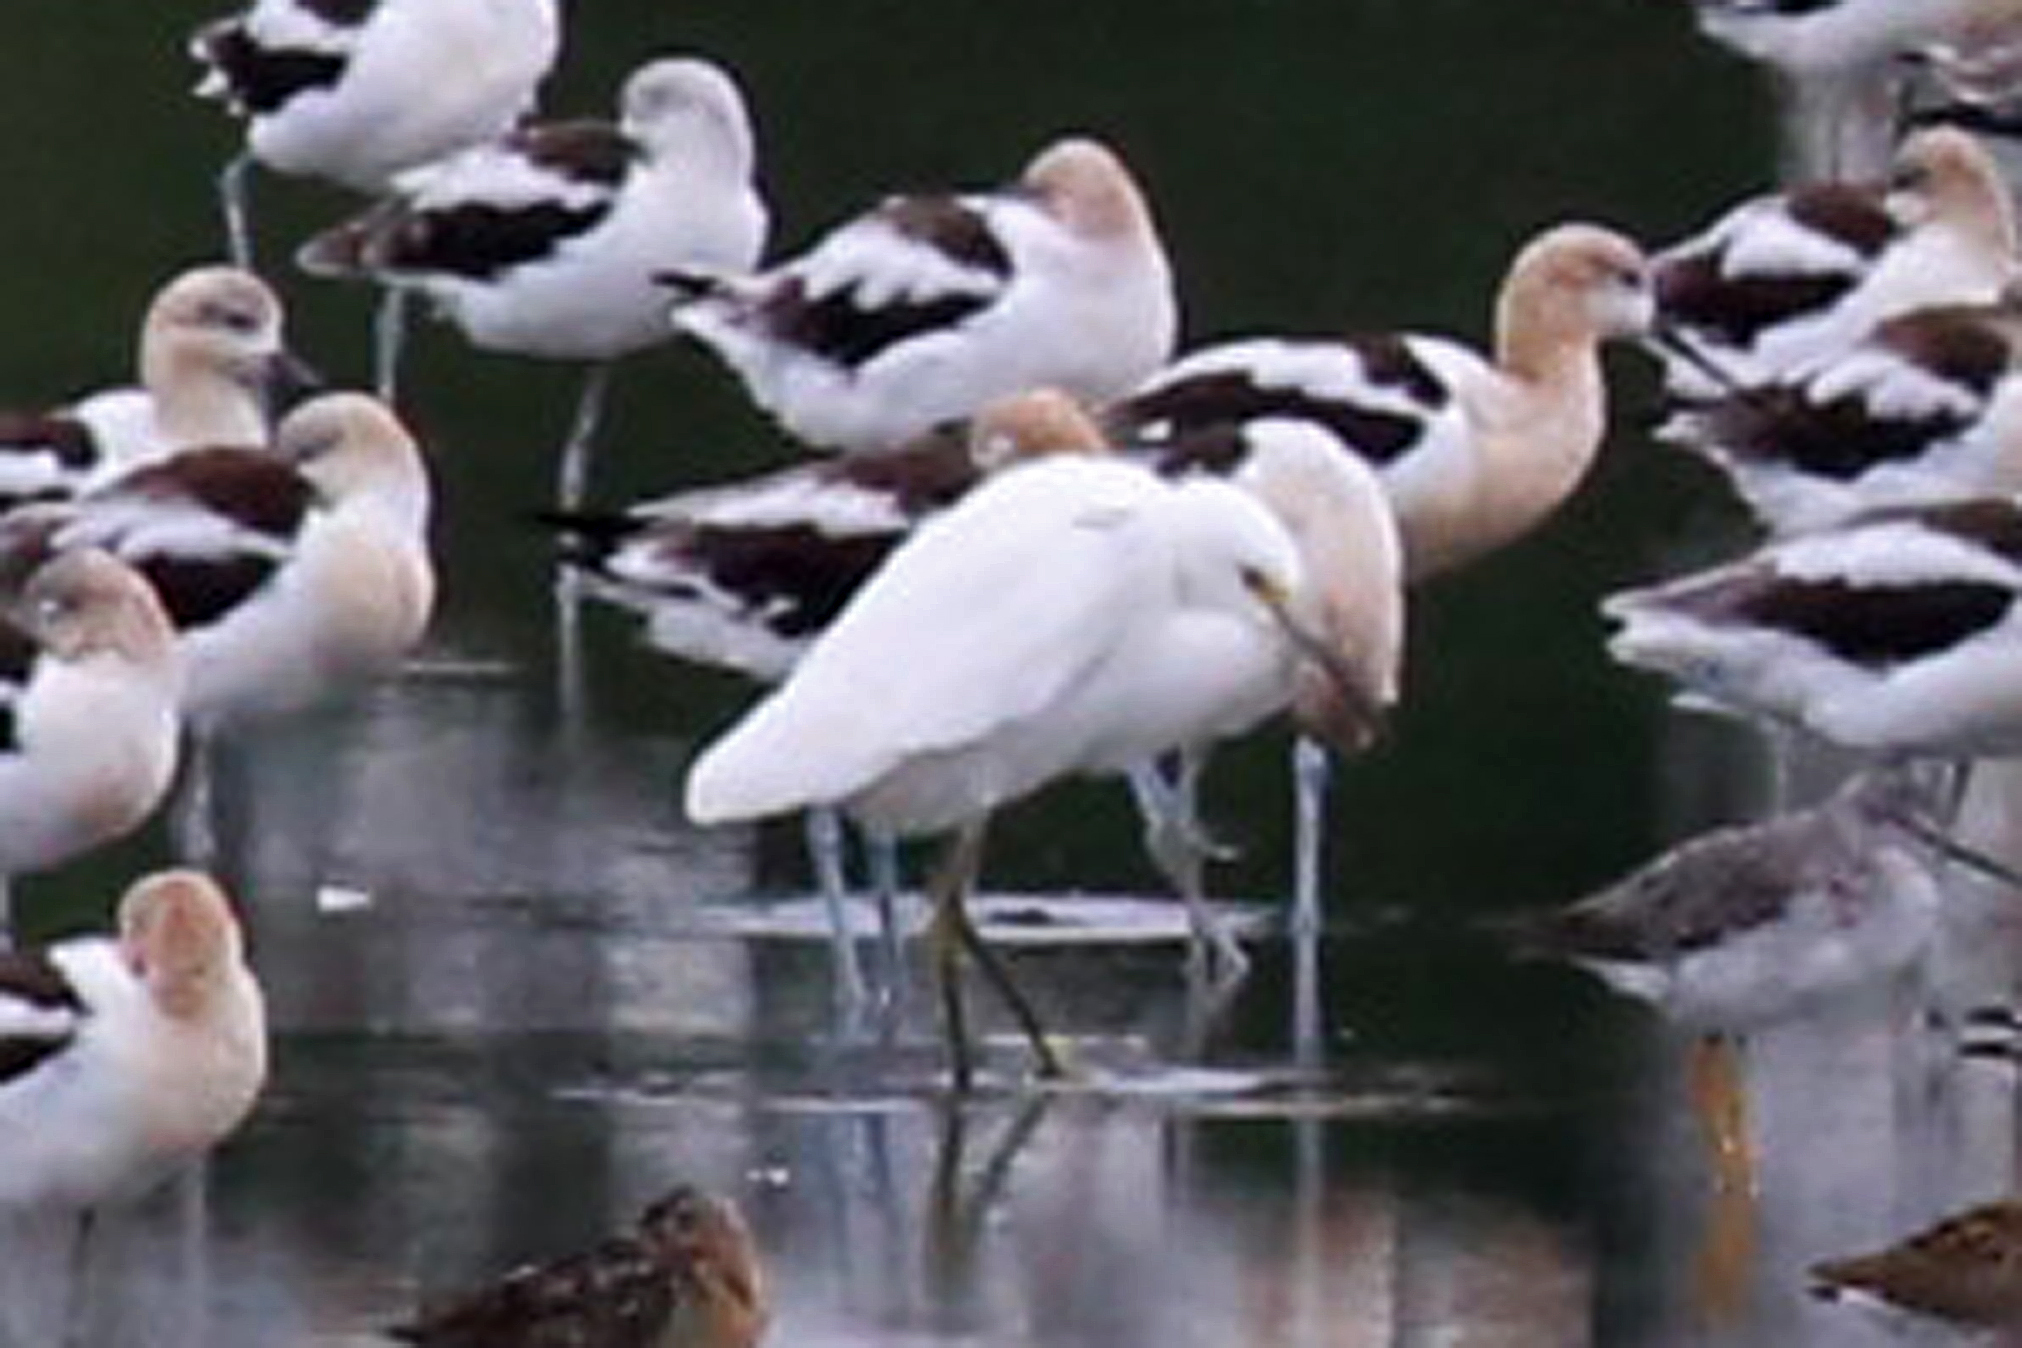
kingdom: Animalia
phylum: Chordata
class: Aves
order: Pelecaniformes
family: Ardeidae
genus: Egretta
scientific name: Egretta thula
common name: Snowy egret
